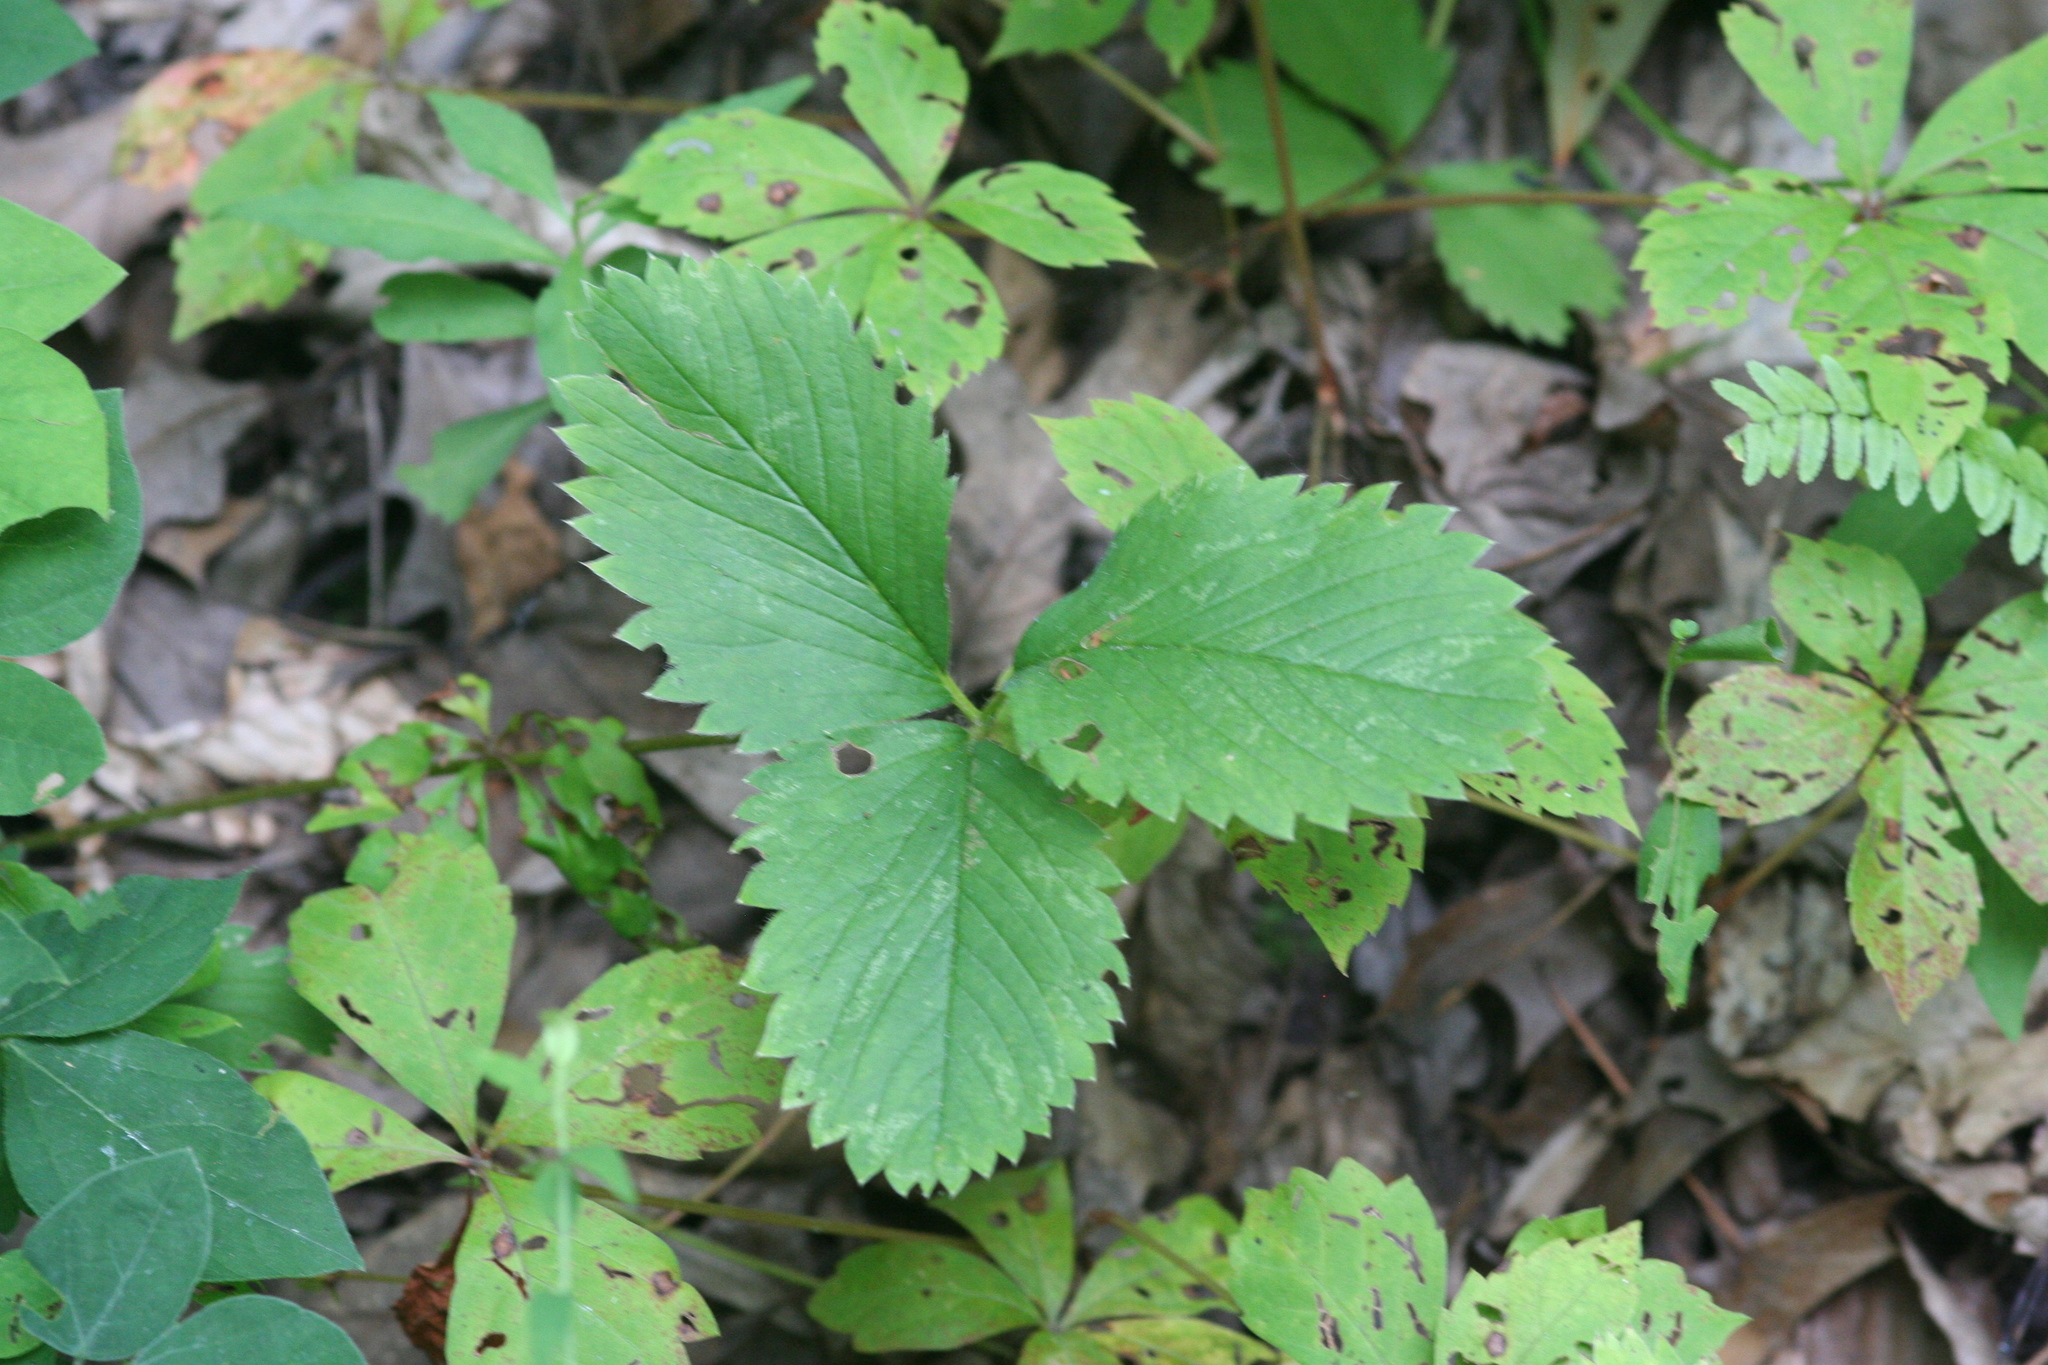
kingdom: Plantae
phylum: Tracheophyta
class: Magnoliopsida
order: Rosales
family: Rosaceae
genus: Fragaria
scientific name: Fragaria virginiana
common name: Thickleaved wild strawberry
